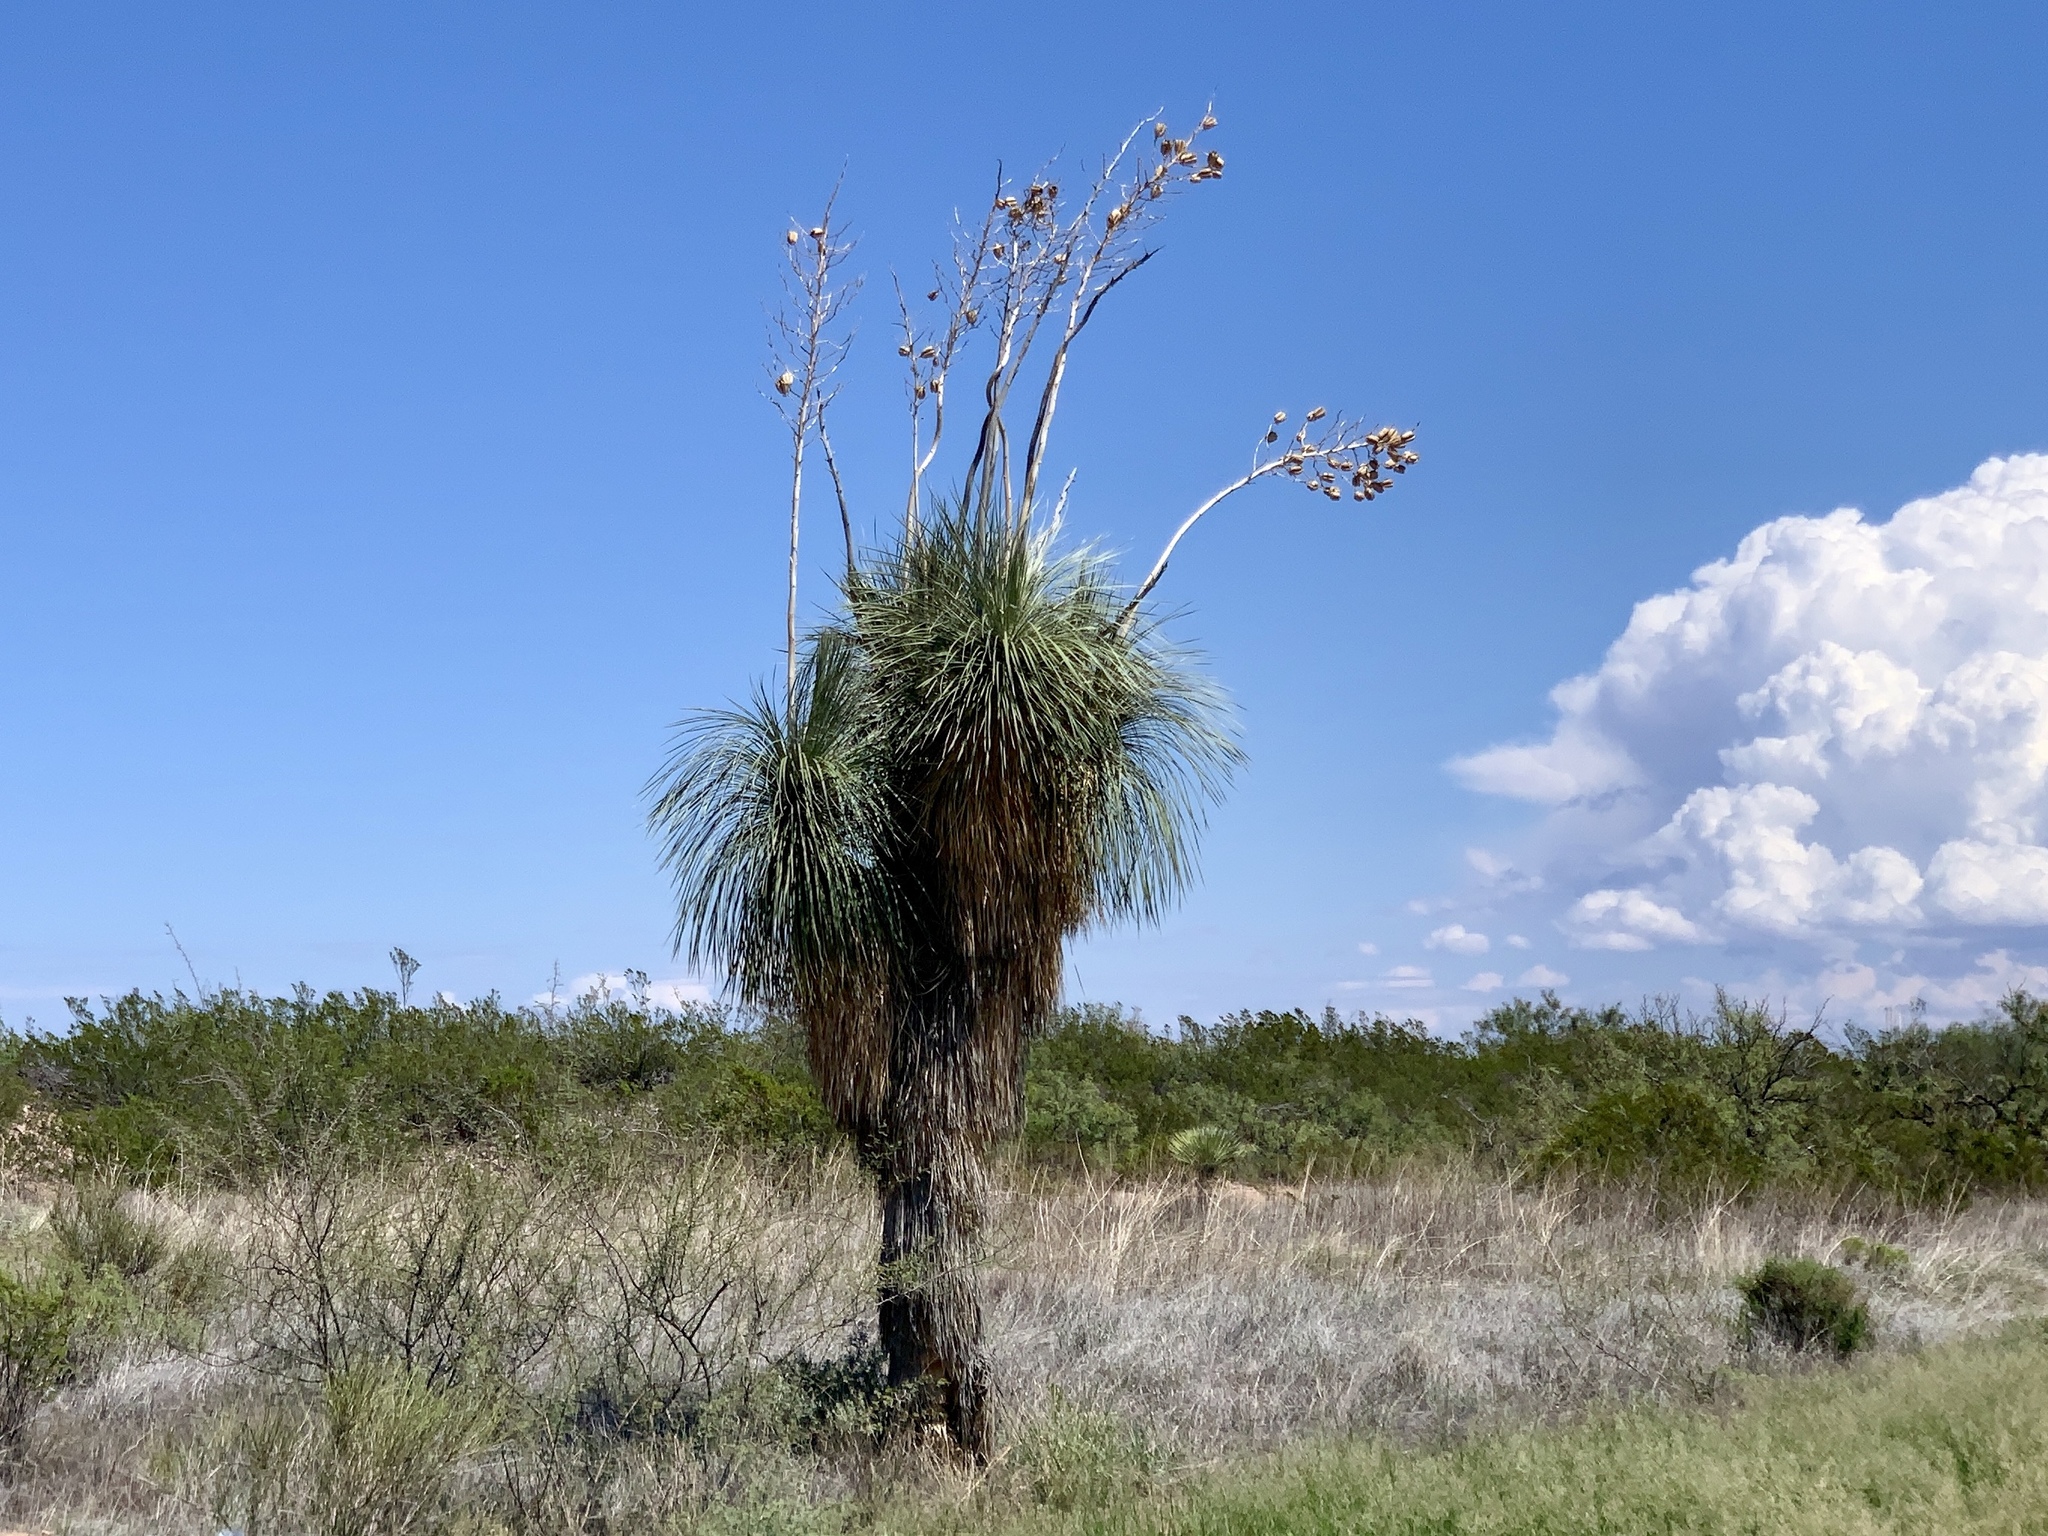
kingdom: Plantae
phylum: Tracheophyta
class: Liliopsida
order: Asparagales
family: Asparagaceae
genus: Yucca
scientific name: Yucca elata
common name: Palmella
